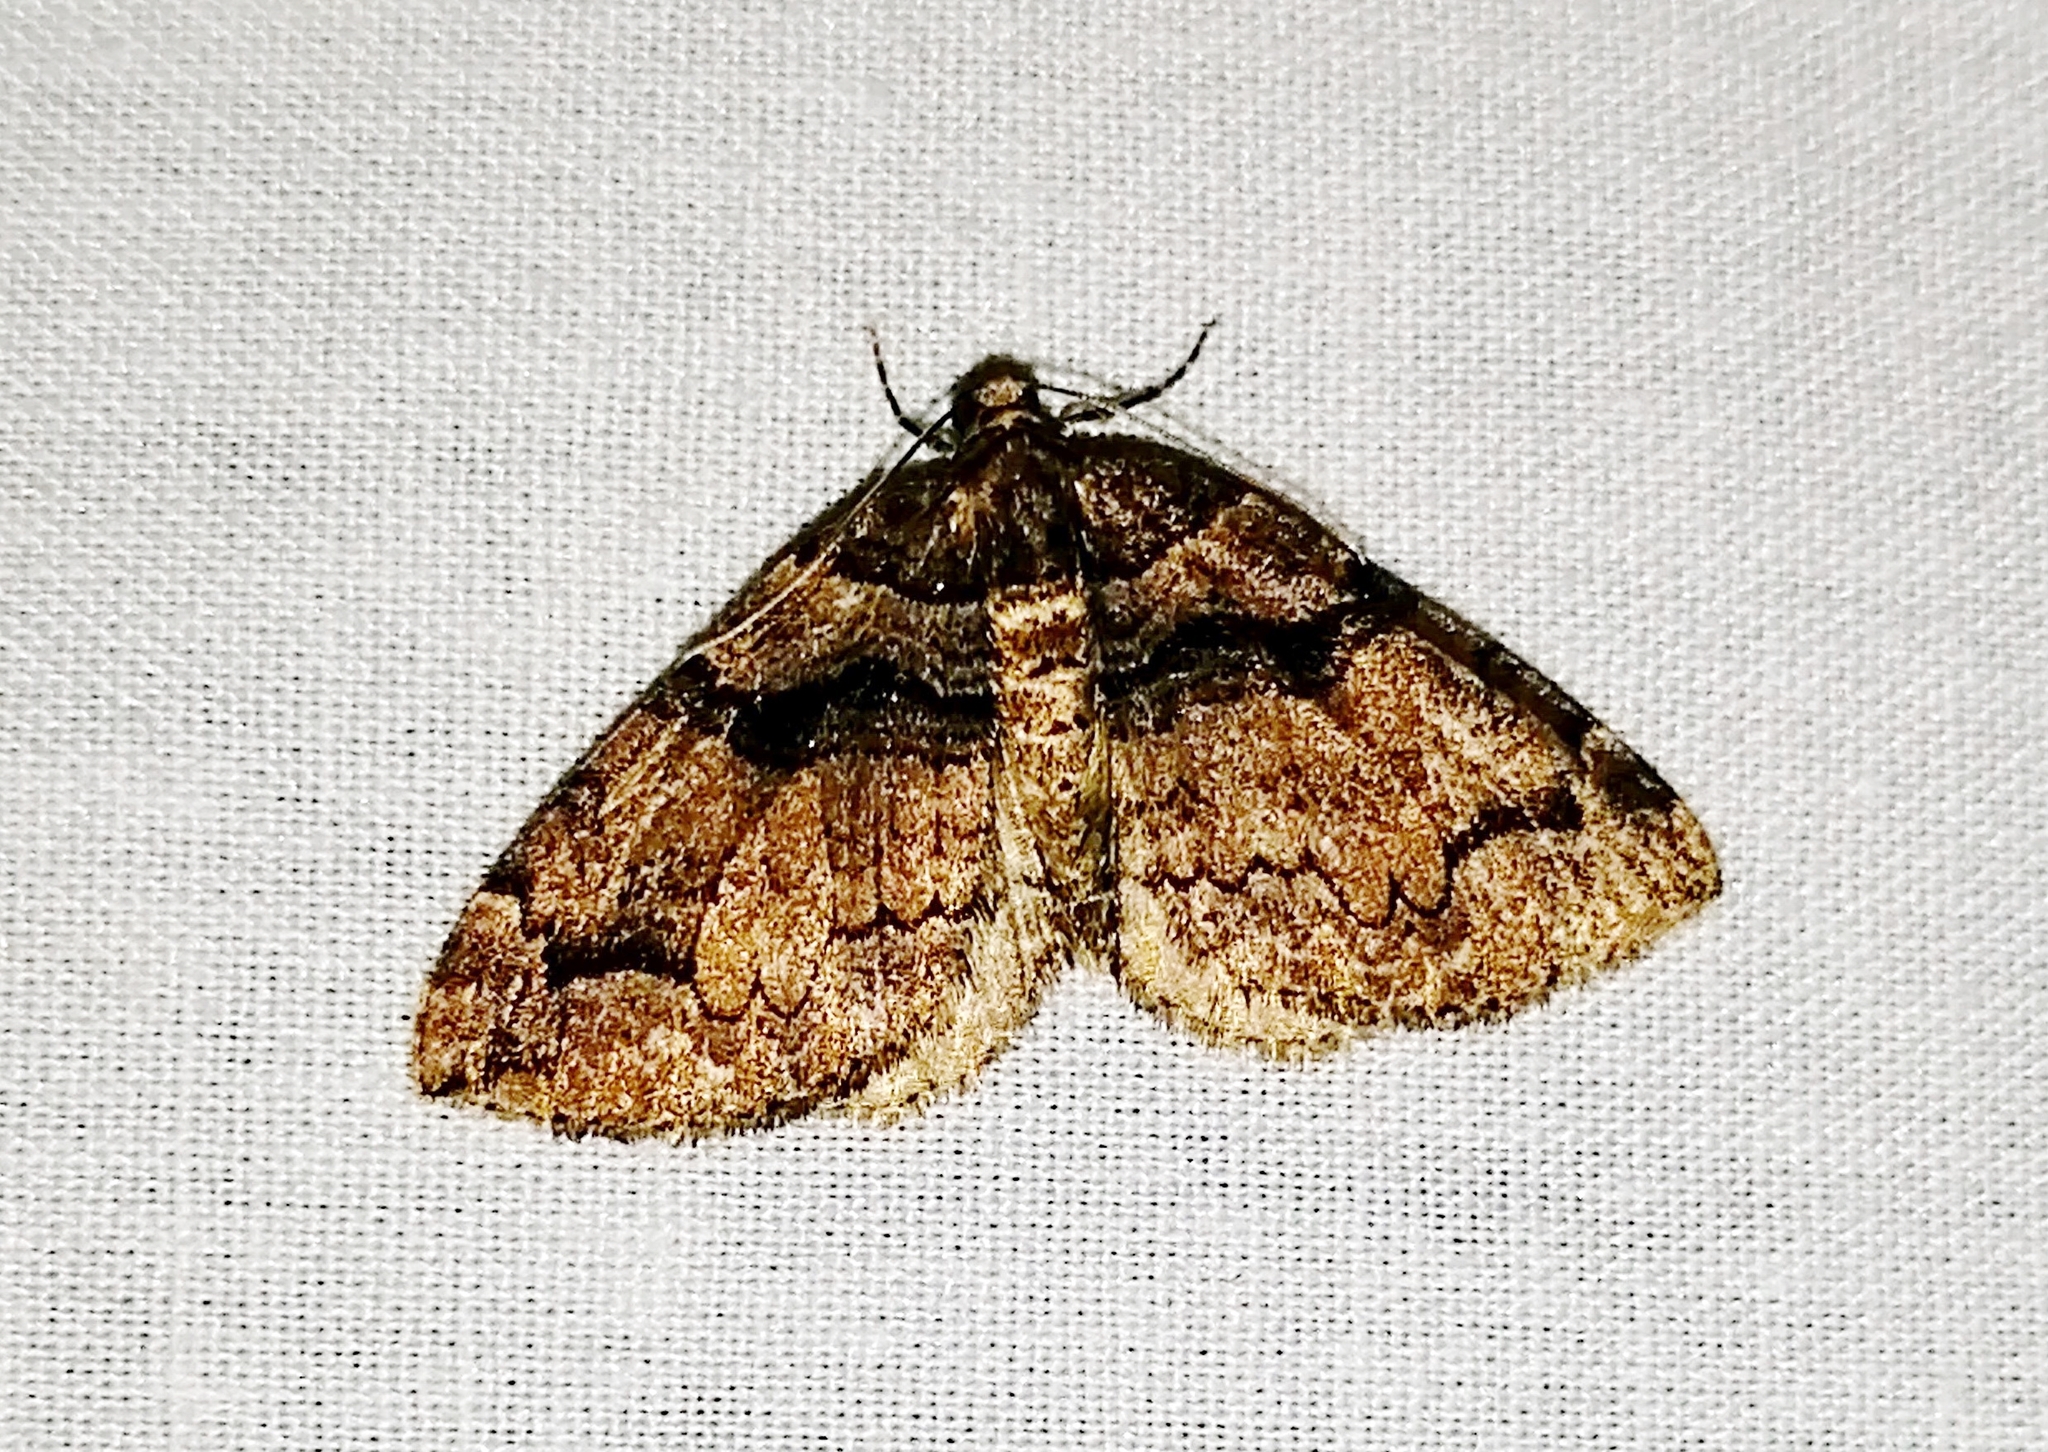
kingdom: Animalia
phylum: Arthropoda
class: Insecta
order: Lepidoptera
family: Geometridae
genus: Anticlea
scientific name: Anticlea vasiliata
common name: Variable carpet
